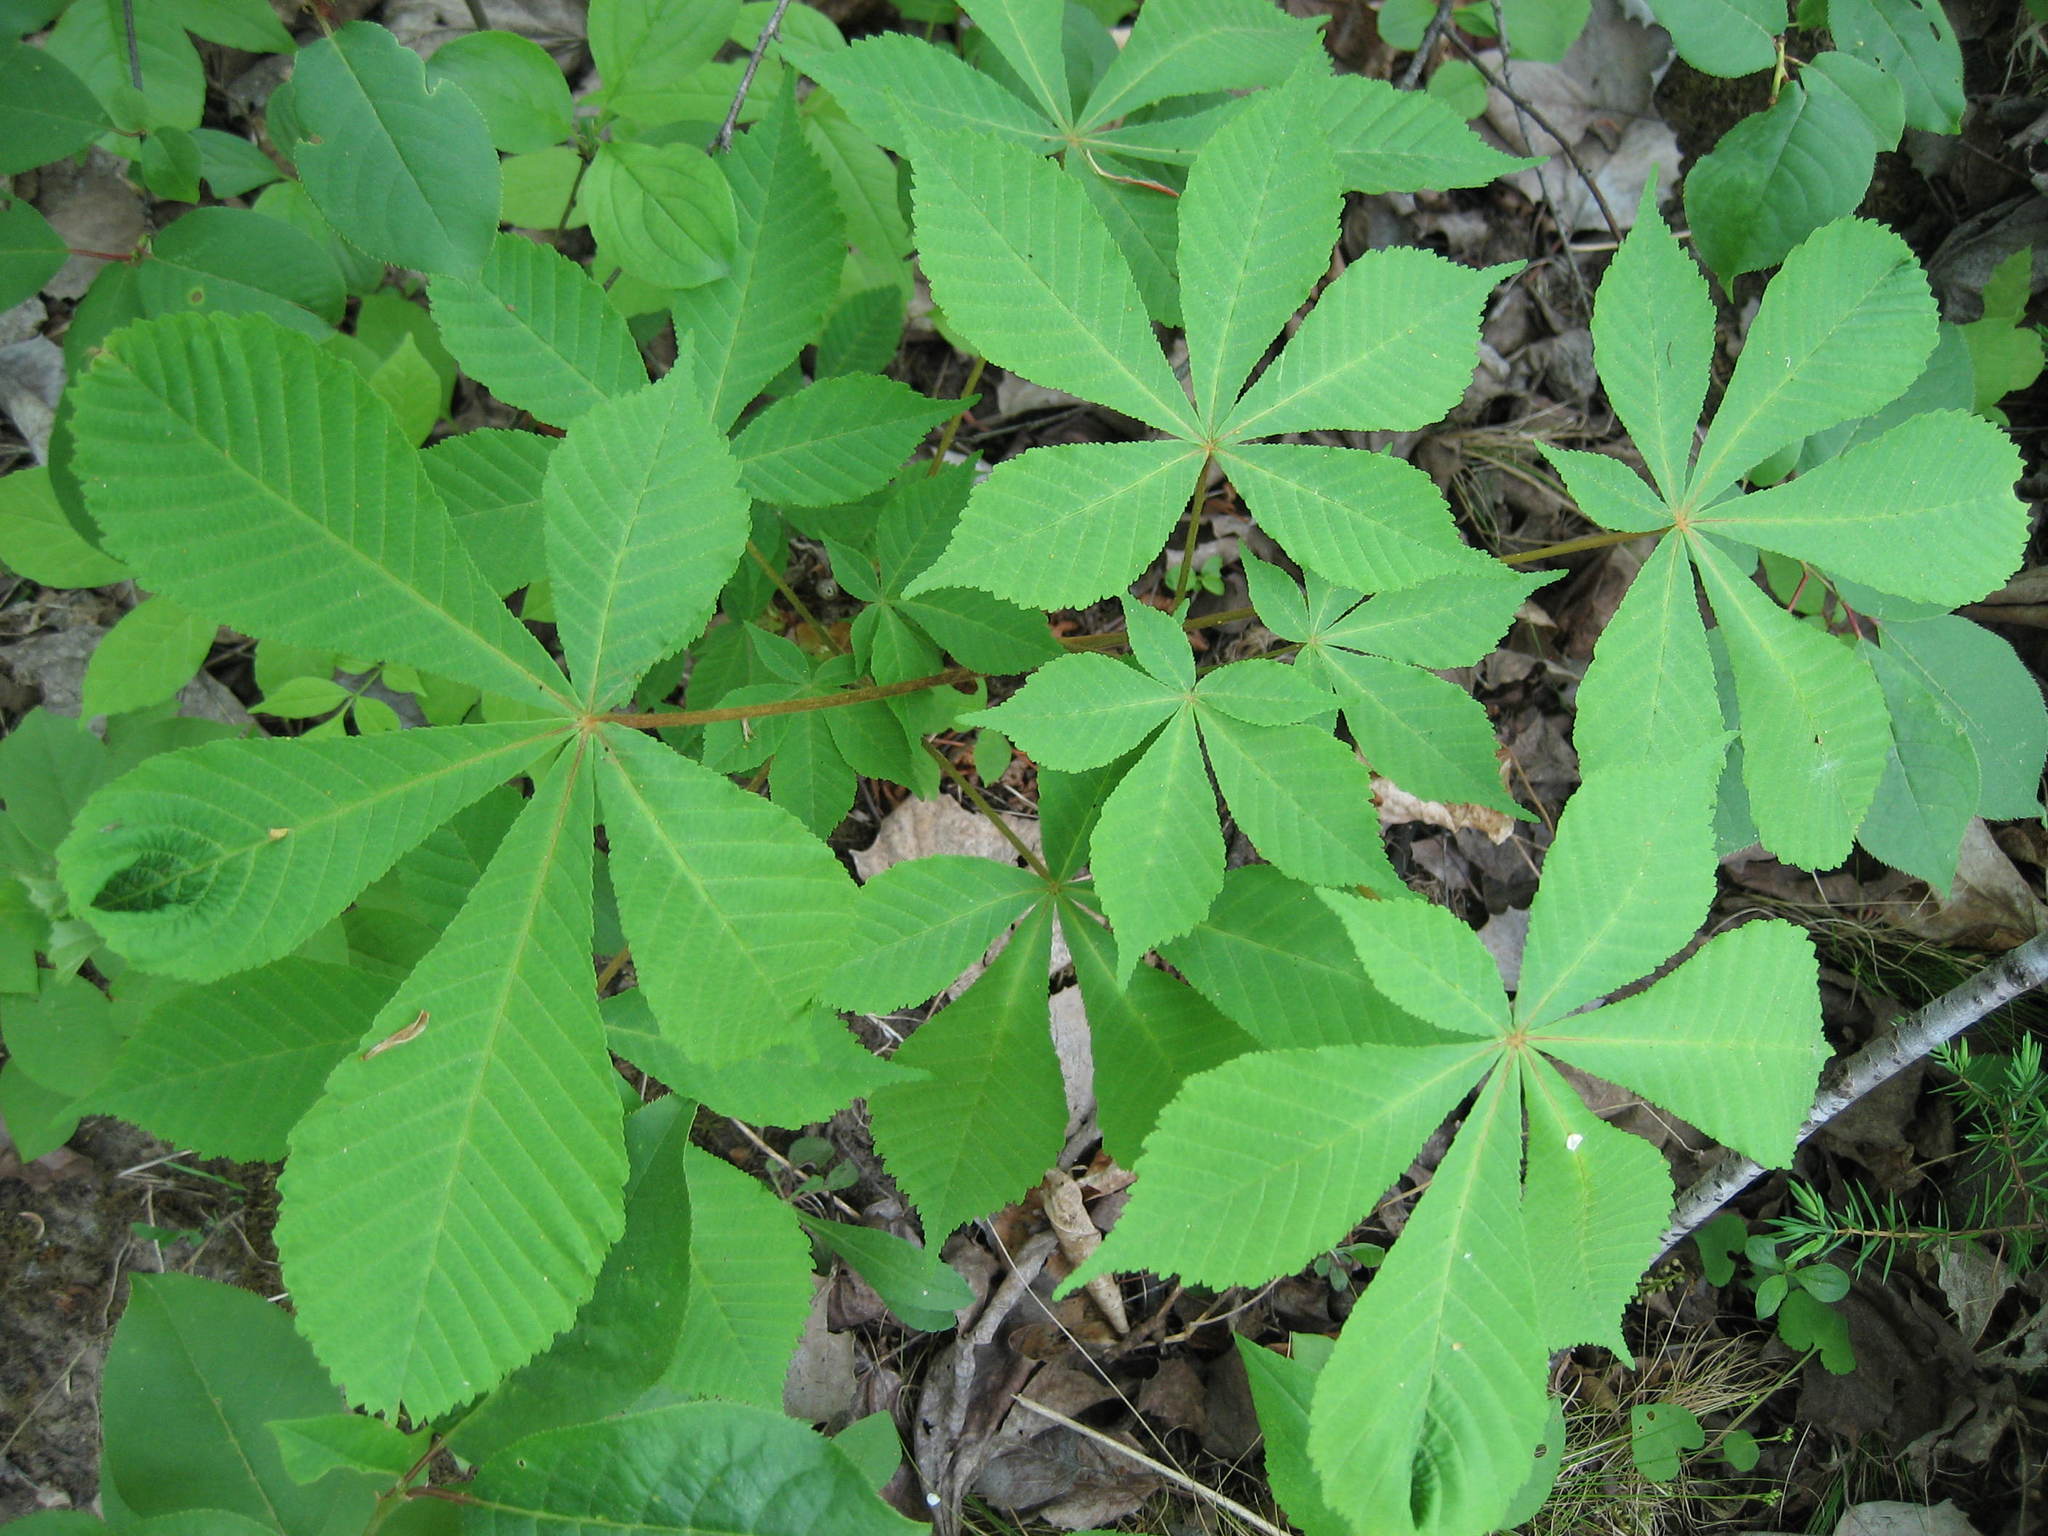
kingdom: Plantae
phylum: Tracheophyta
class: Magnoliopsida
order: Sapindales
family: Sapindaceae
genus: Aesculus
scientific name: Aesculus hippocastanum
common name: Horse-chestnut
